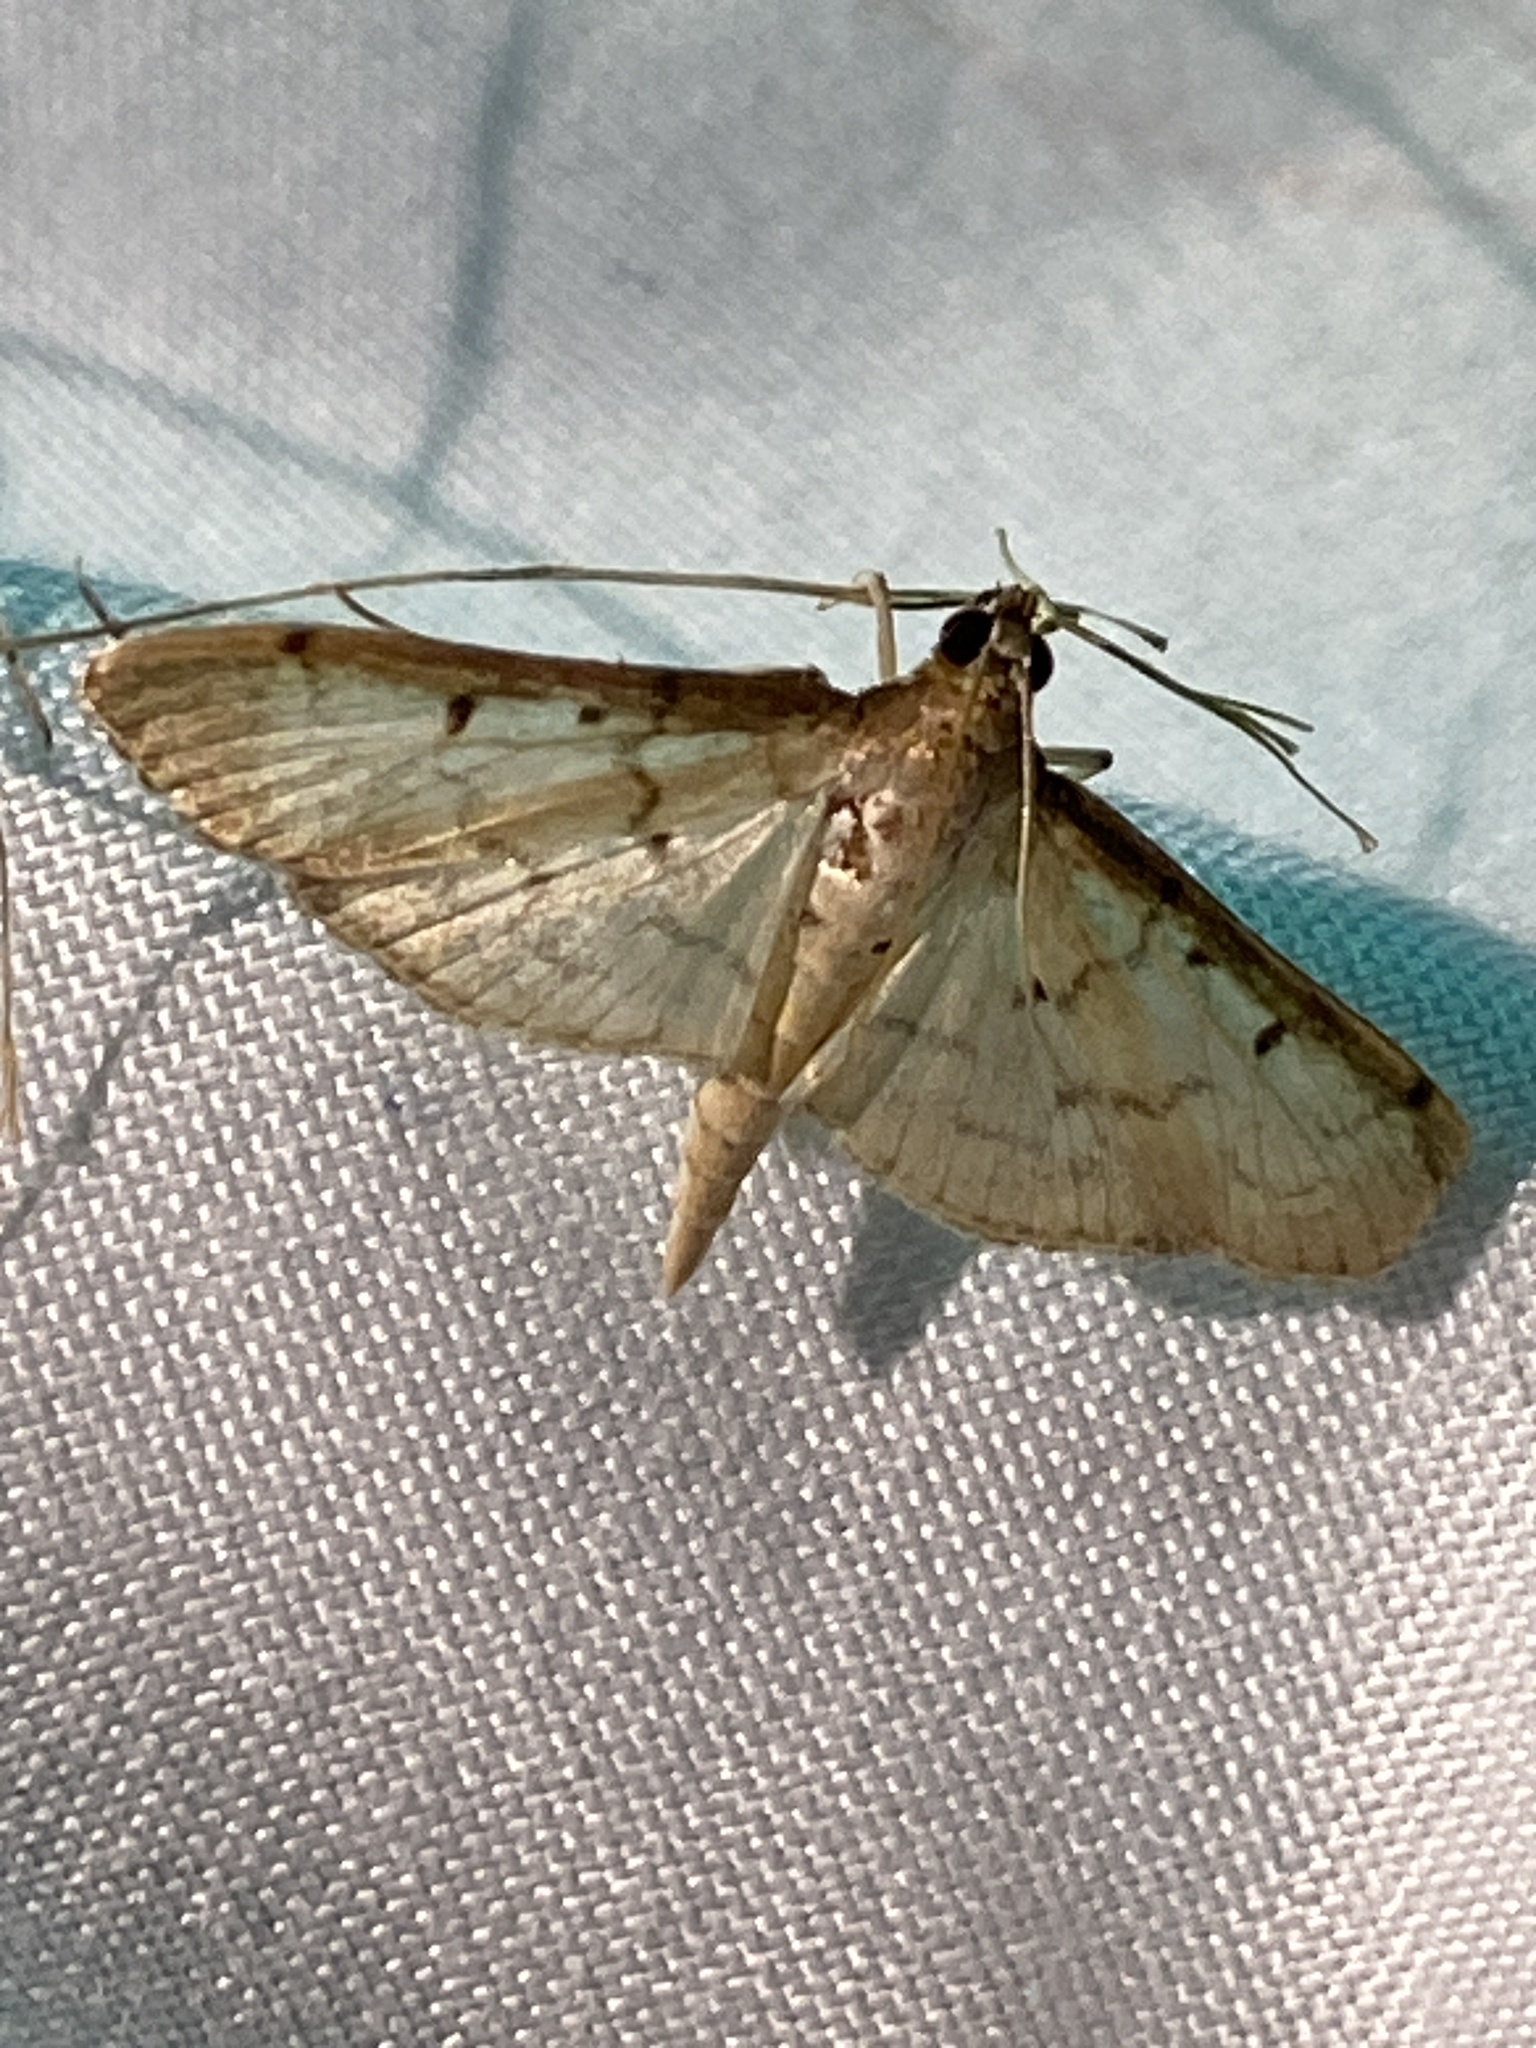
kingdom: Animalia
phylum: Arthropoda
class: Insecta
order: Lepidoptera
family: Crambidae
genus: Herpetogramma
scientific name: Herpetogramma bipunctalis
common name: Southern beet webworm
